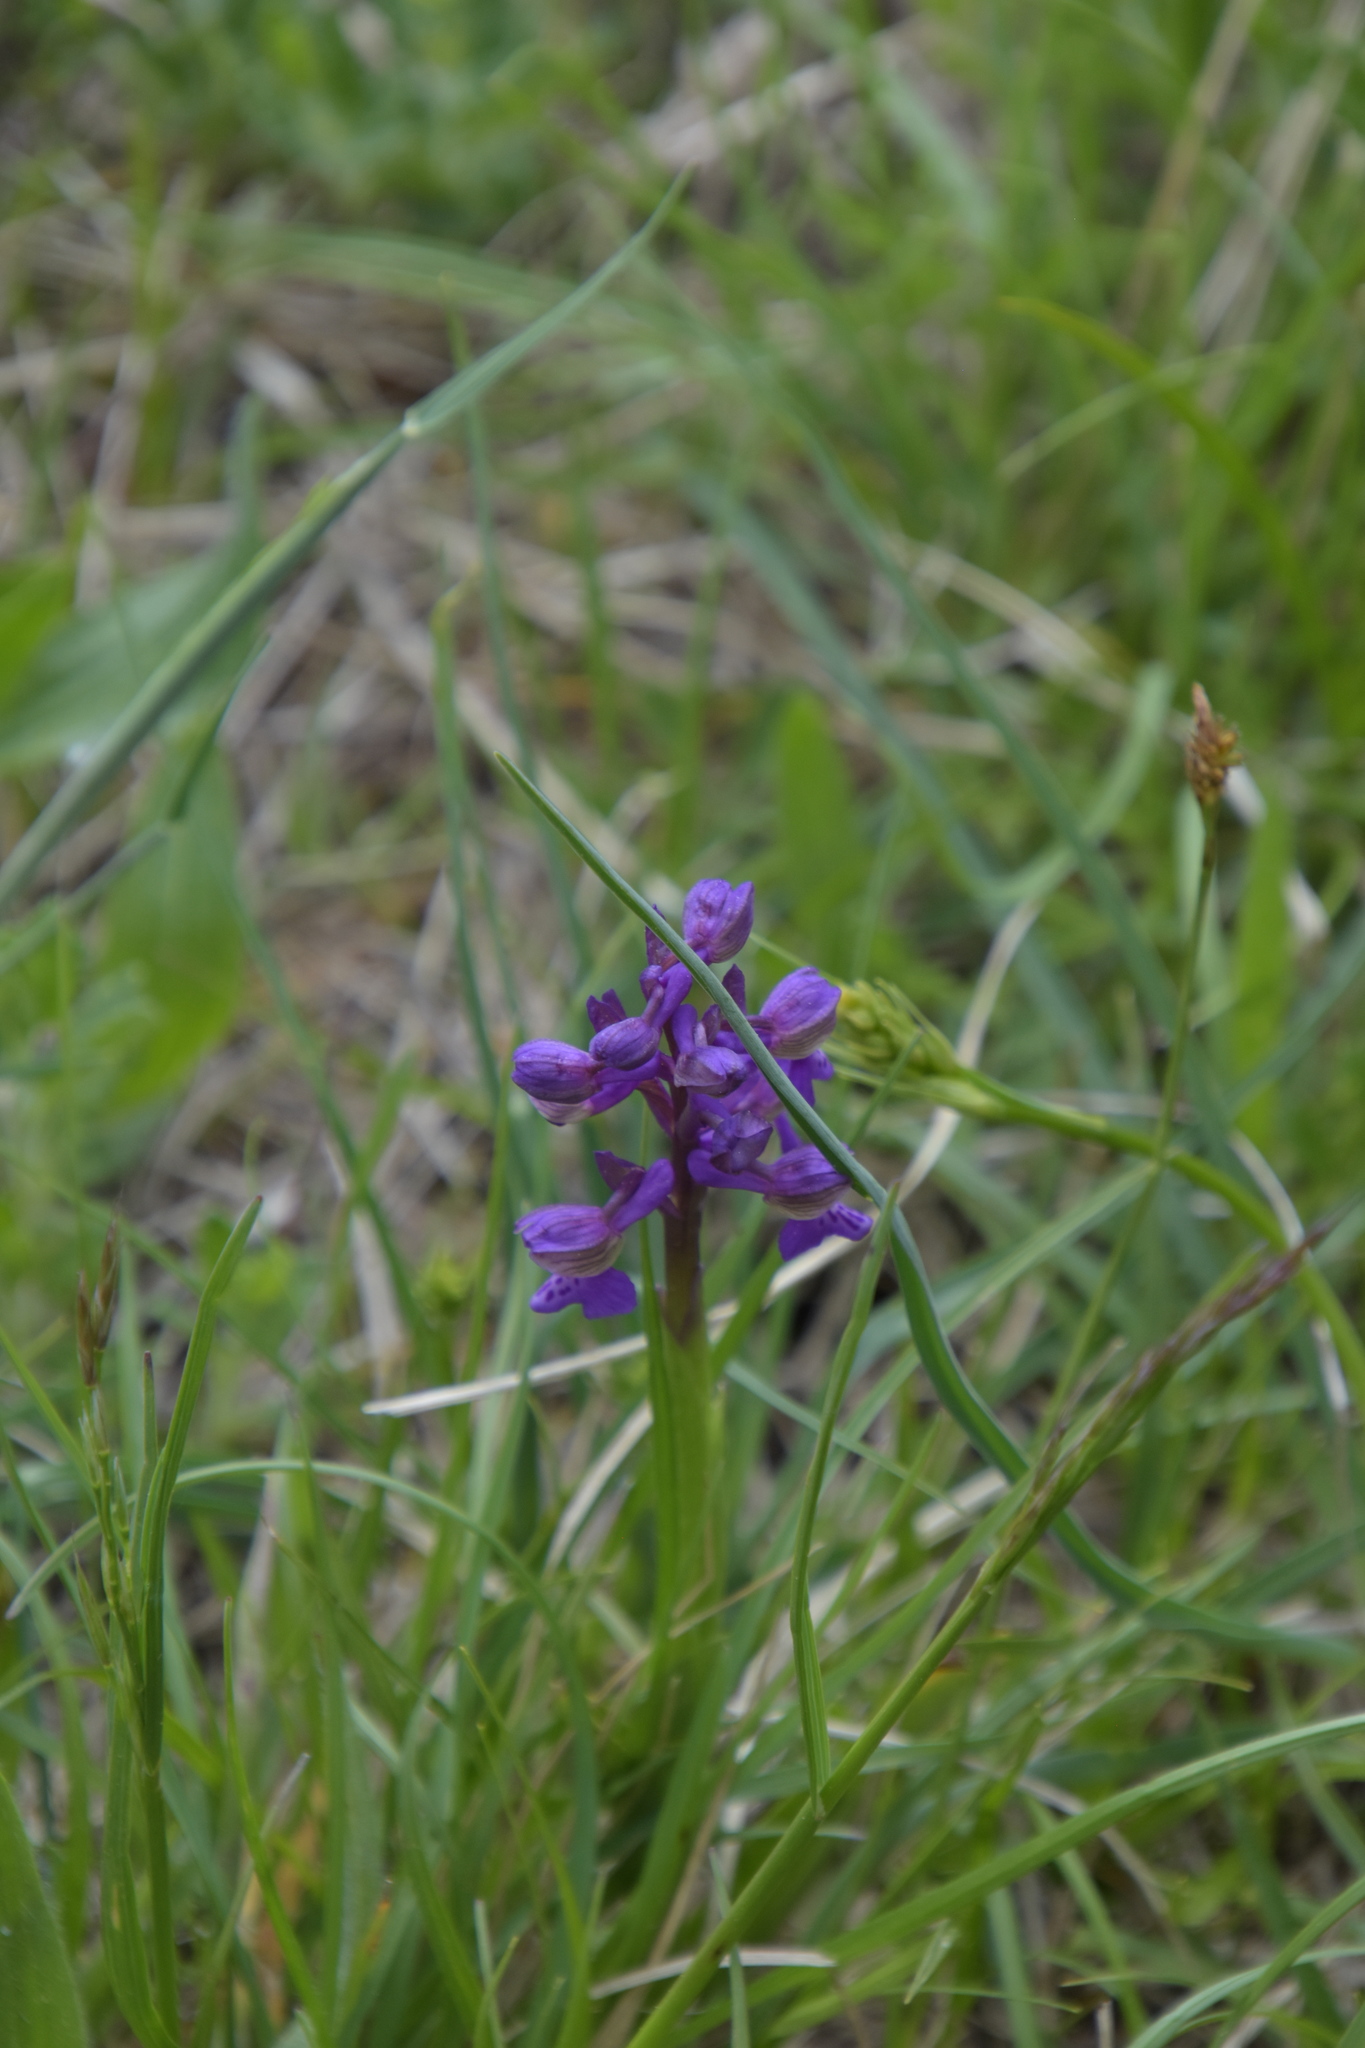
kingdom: Plantae
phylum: Tracheophyta
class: Liliopsida
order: Asparagales
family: Orchidaceae
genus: Anacamptis
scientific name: Anacamptis morio
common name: Green-winged orchid
